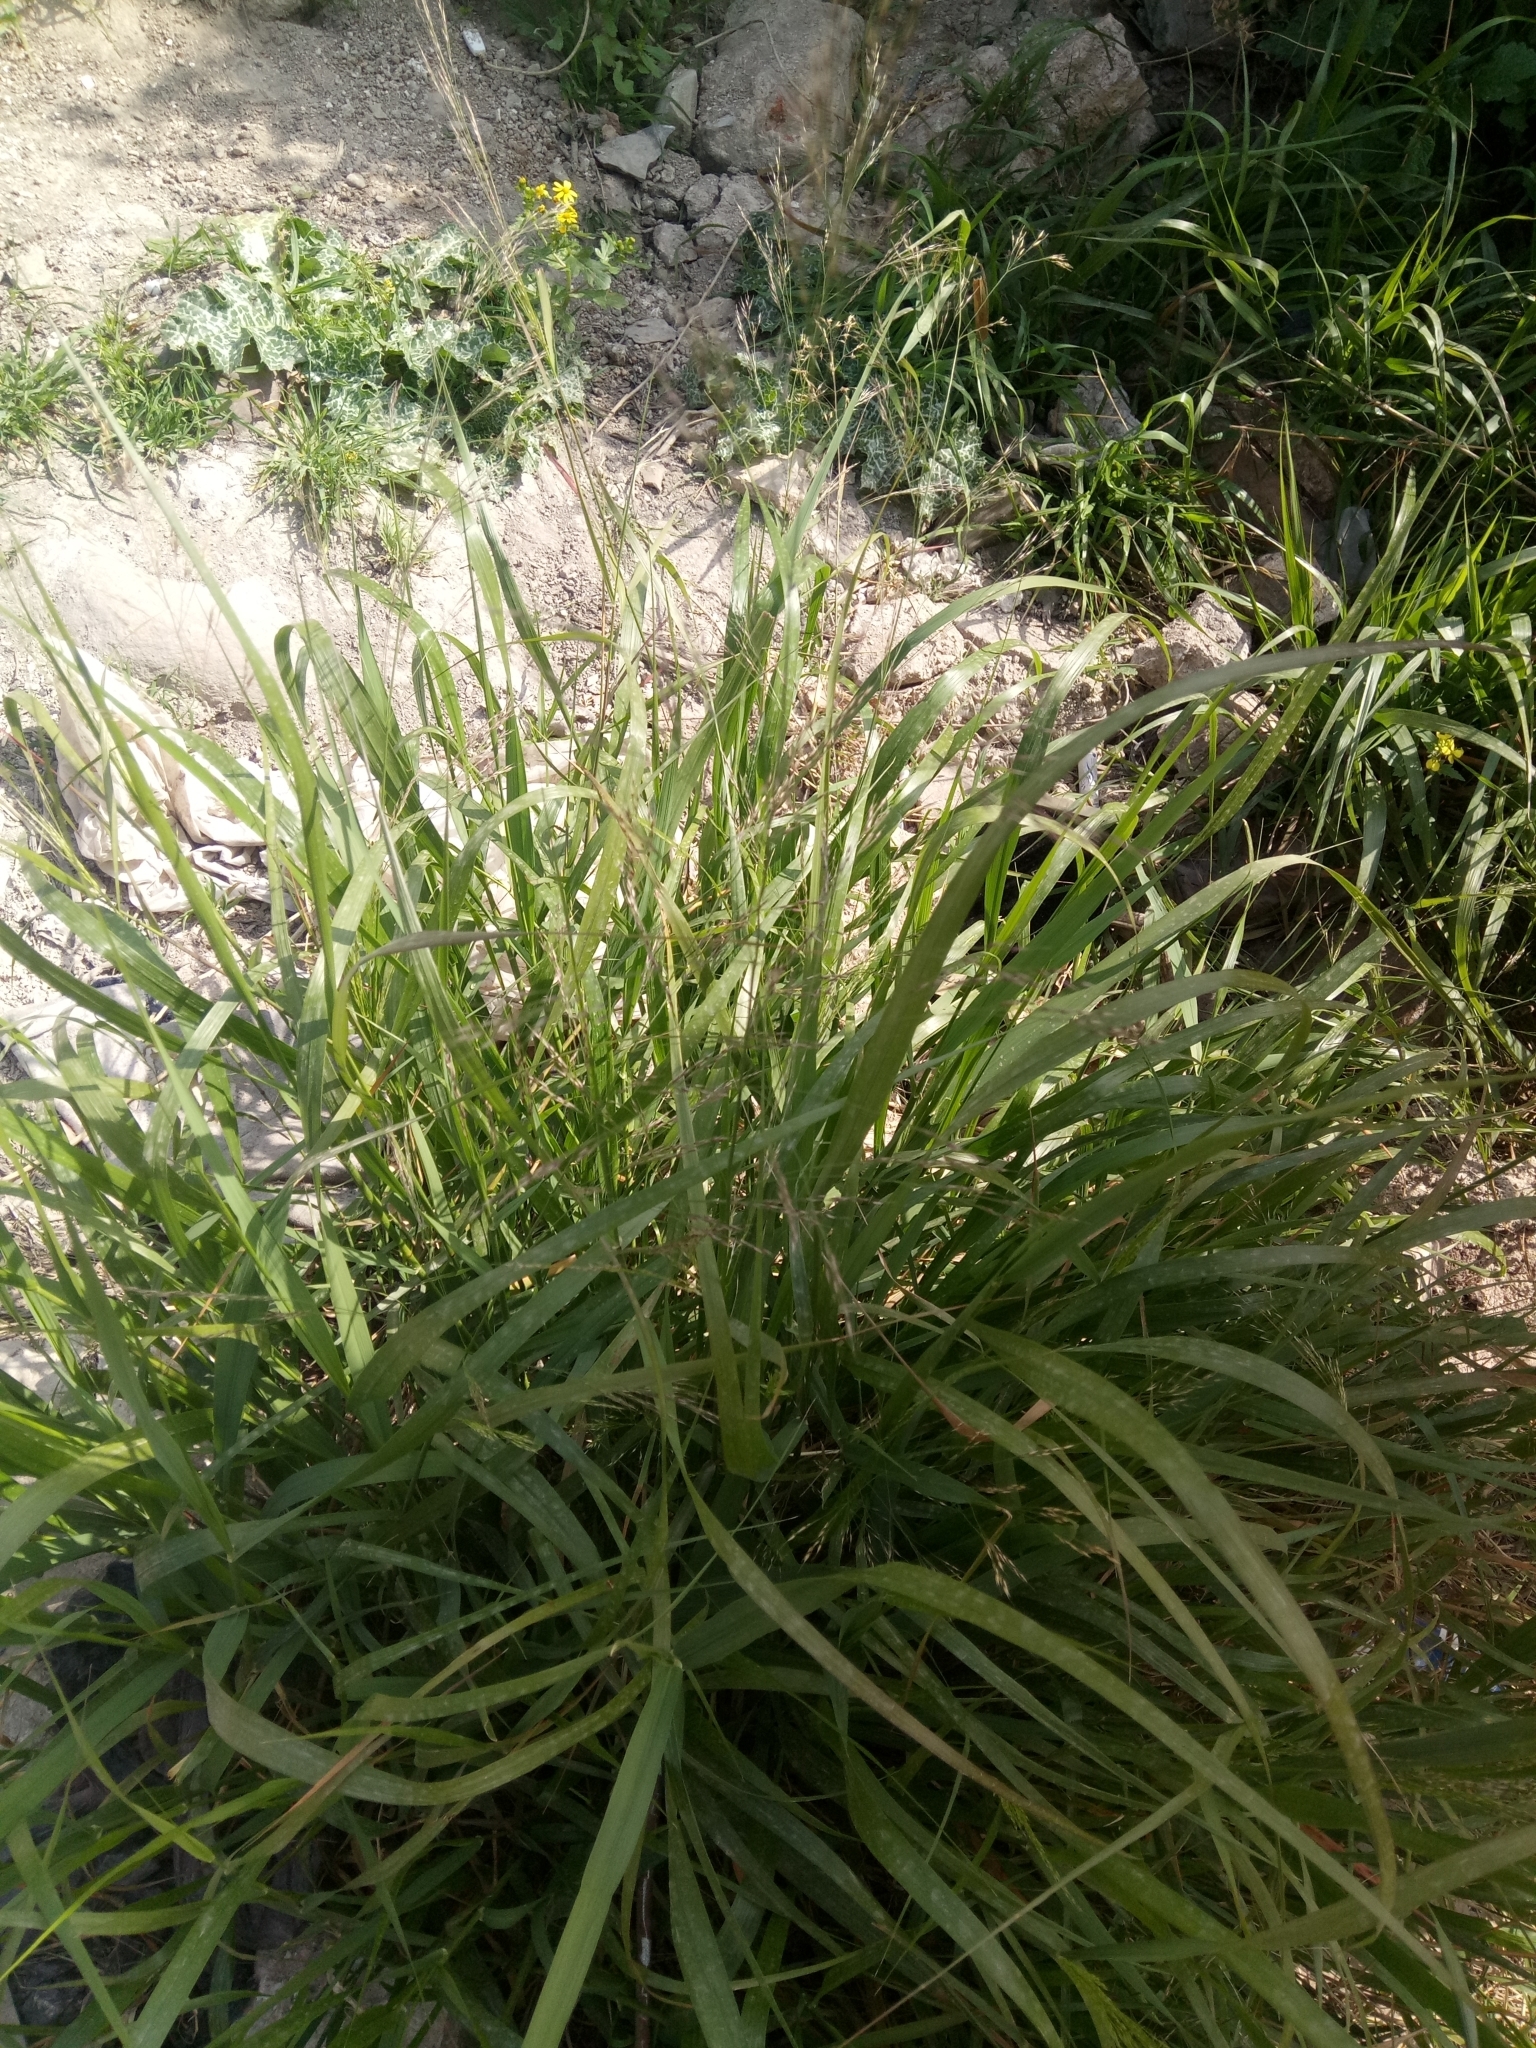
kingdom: Plantae
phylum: Tracheophyta
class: Liliopsida
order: Poales
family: Poaceae
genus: Oloptum
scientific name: Oloptum miliaceum
